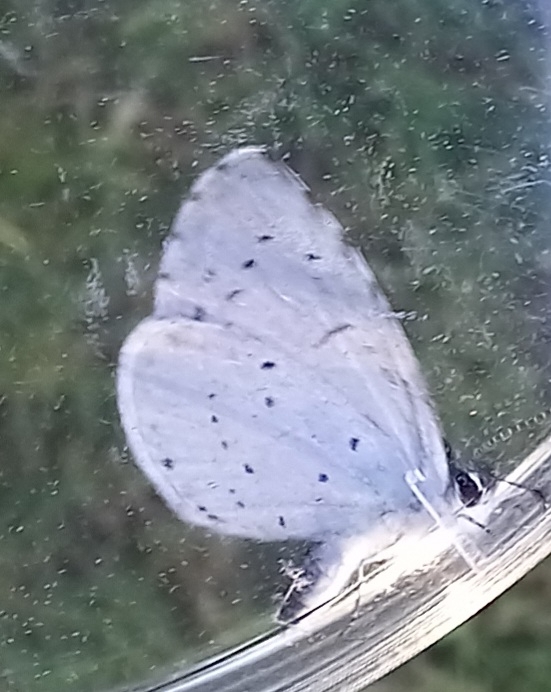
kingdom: Animalia
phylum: Arthropoda
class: Insecta
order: Lepidoptera
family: Lycaenidae
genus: Celastrina
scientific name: Celastrina argiolus
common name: Holly blue
